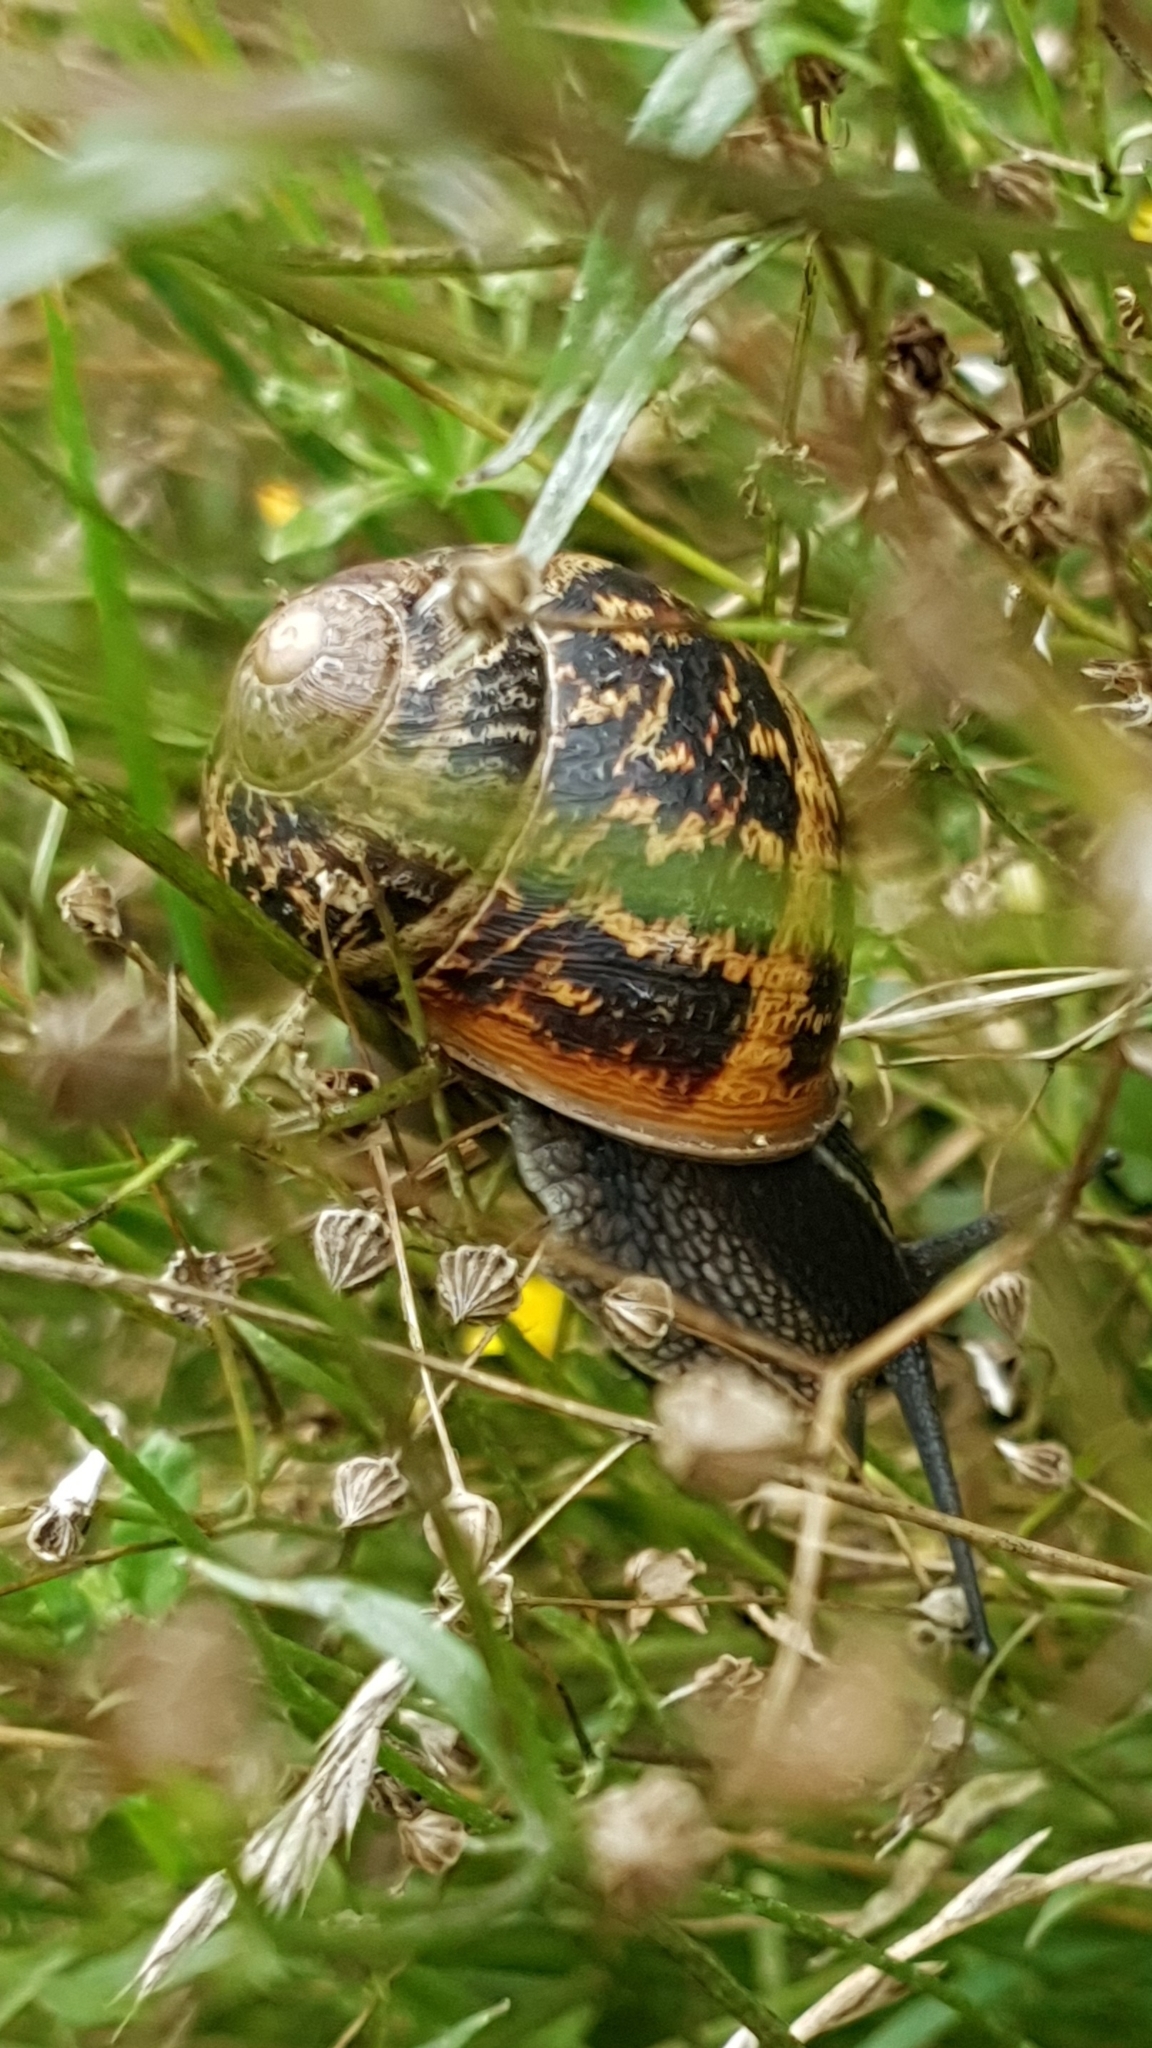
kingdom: Animalia
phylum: Mollusca
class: Gastropoda
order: Stylommatophora
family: Helicidae
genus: Cornu
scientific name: Cornu aspersum
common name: Brown garden snail
